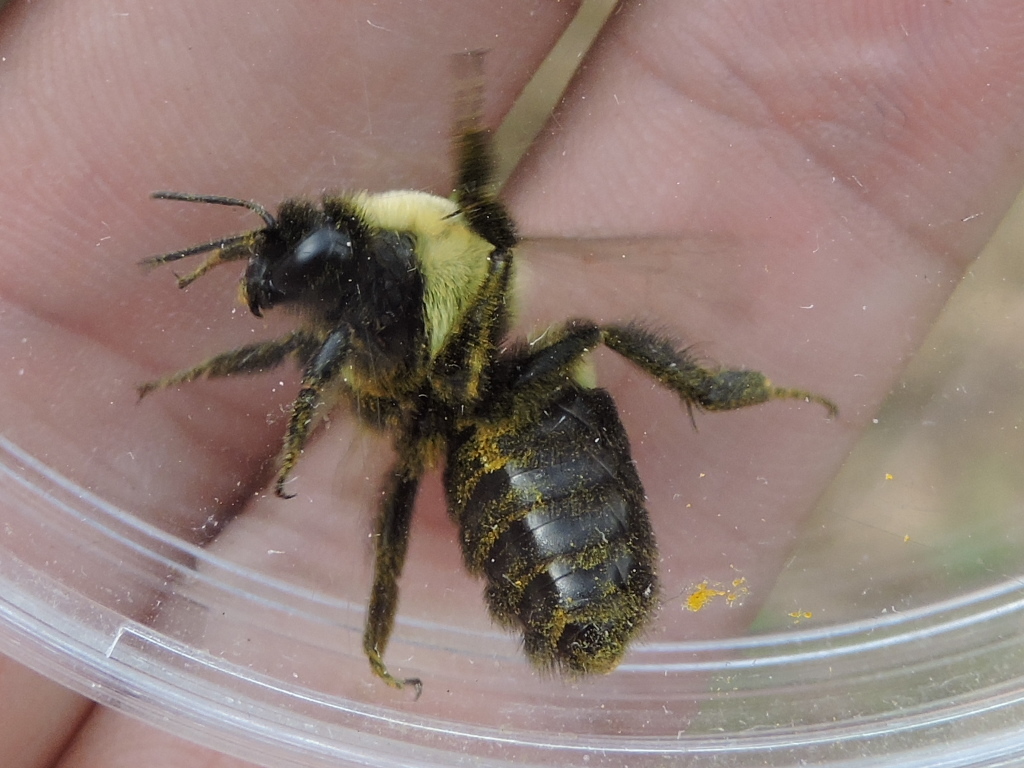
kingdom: Animalia
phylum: Arthropoda
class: Insecta
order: Hymenoptera
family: Apidae
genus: Bombus
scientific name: Bombus impatiens
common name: Common eastern bumble bee
